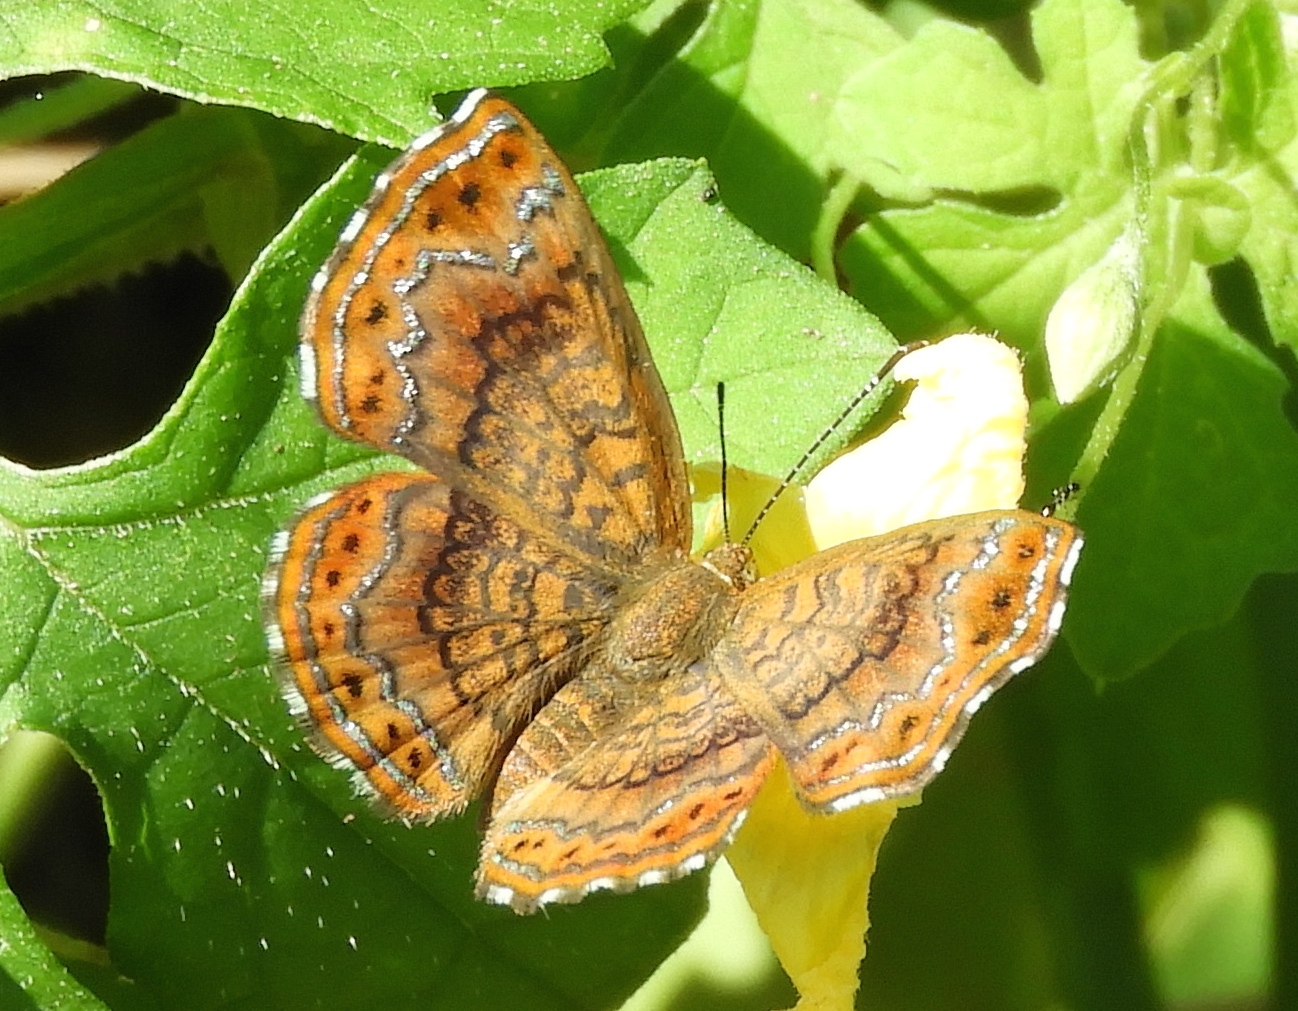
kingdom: Animalia
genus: Calephelis
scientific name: Calephelis
